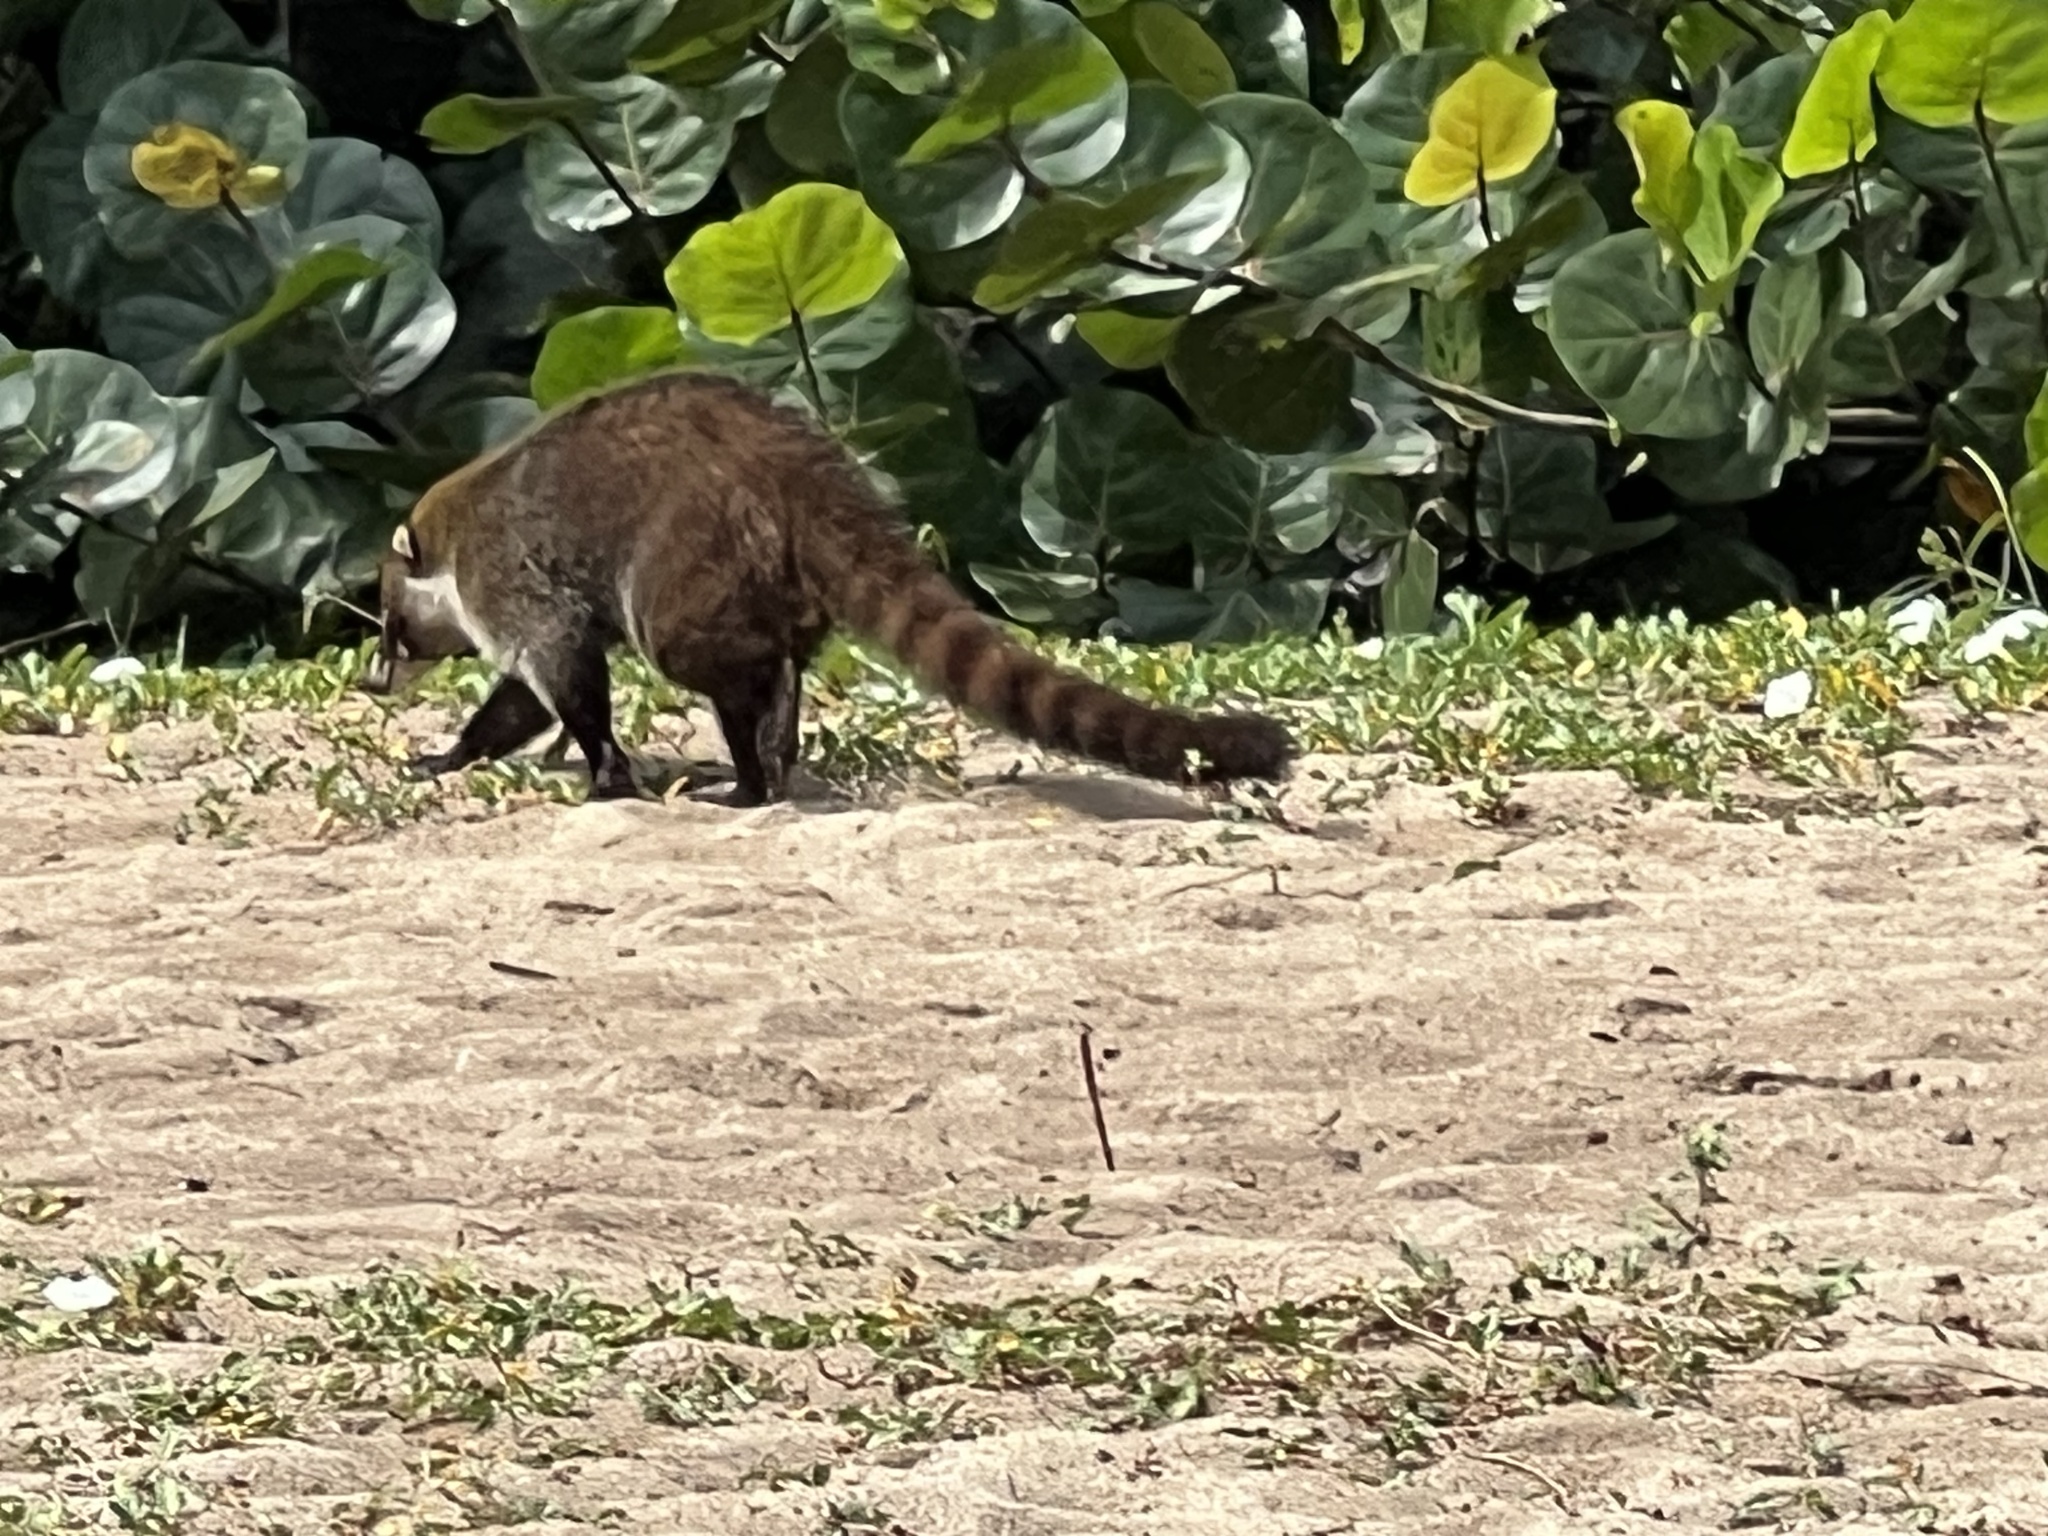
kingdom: Animalia
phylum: Chordata
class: Mammalia
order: Carnivora
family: Procyonidae
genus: Nasua
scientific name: Nasua narica
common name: White-nosed coati
